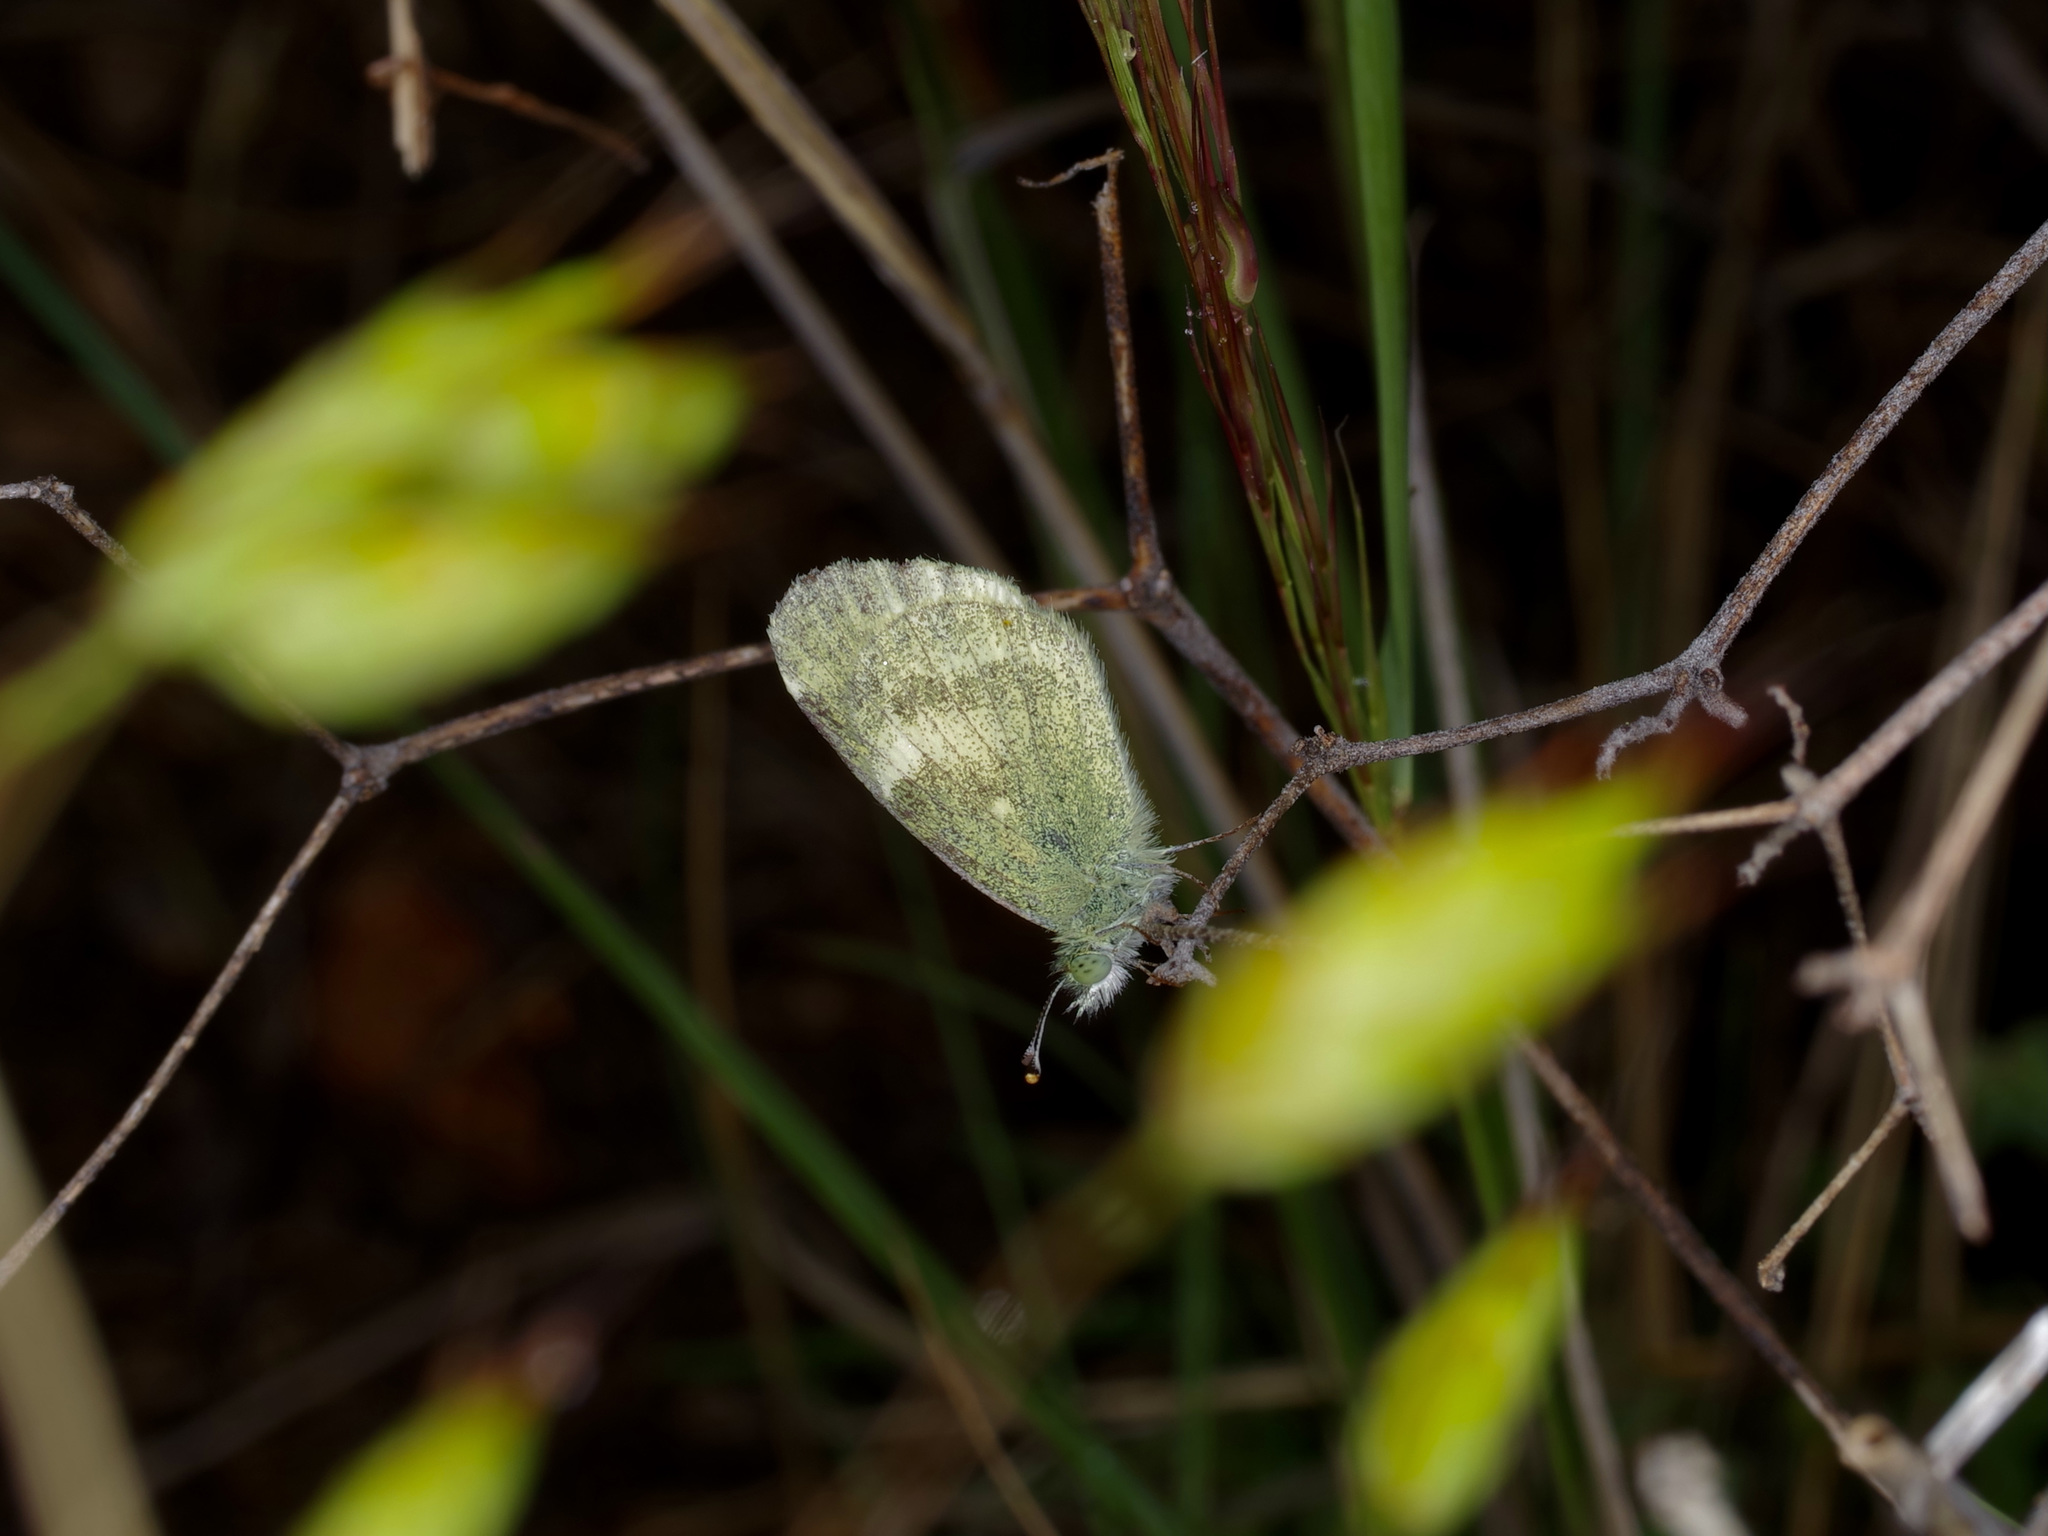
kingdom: Animalia
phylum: Arthropoda
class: Insecta
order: Lepidoptera
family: Pieridae
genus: Nathalis
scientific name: Nathalis iole
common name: Dainty sulphur
